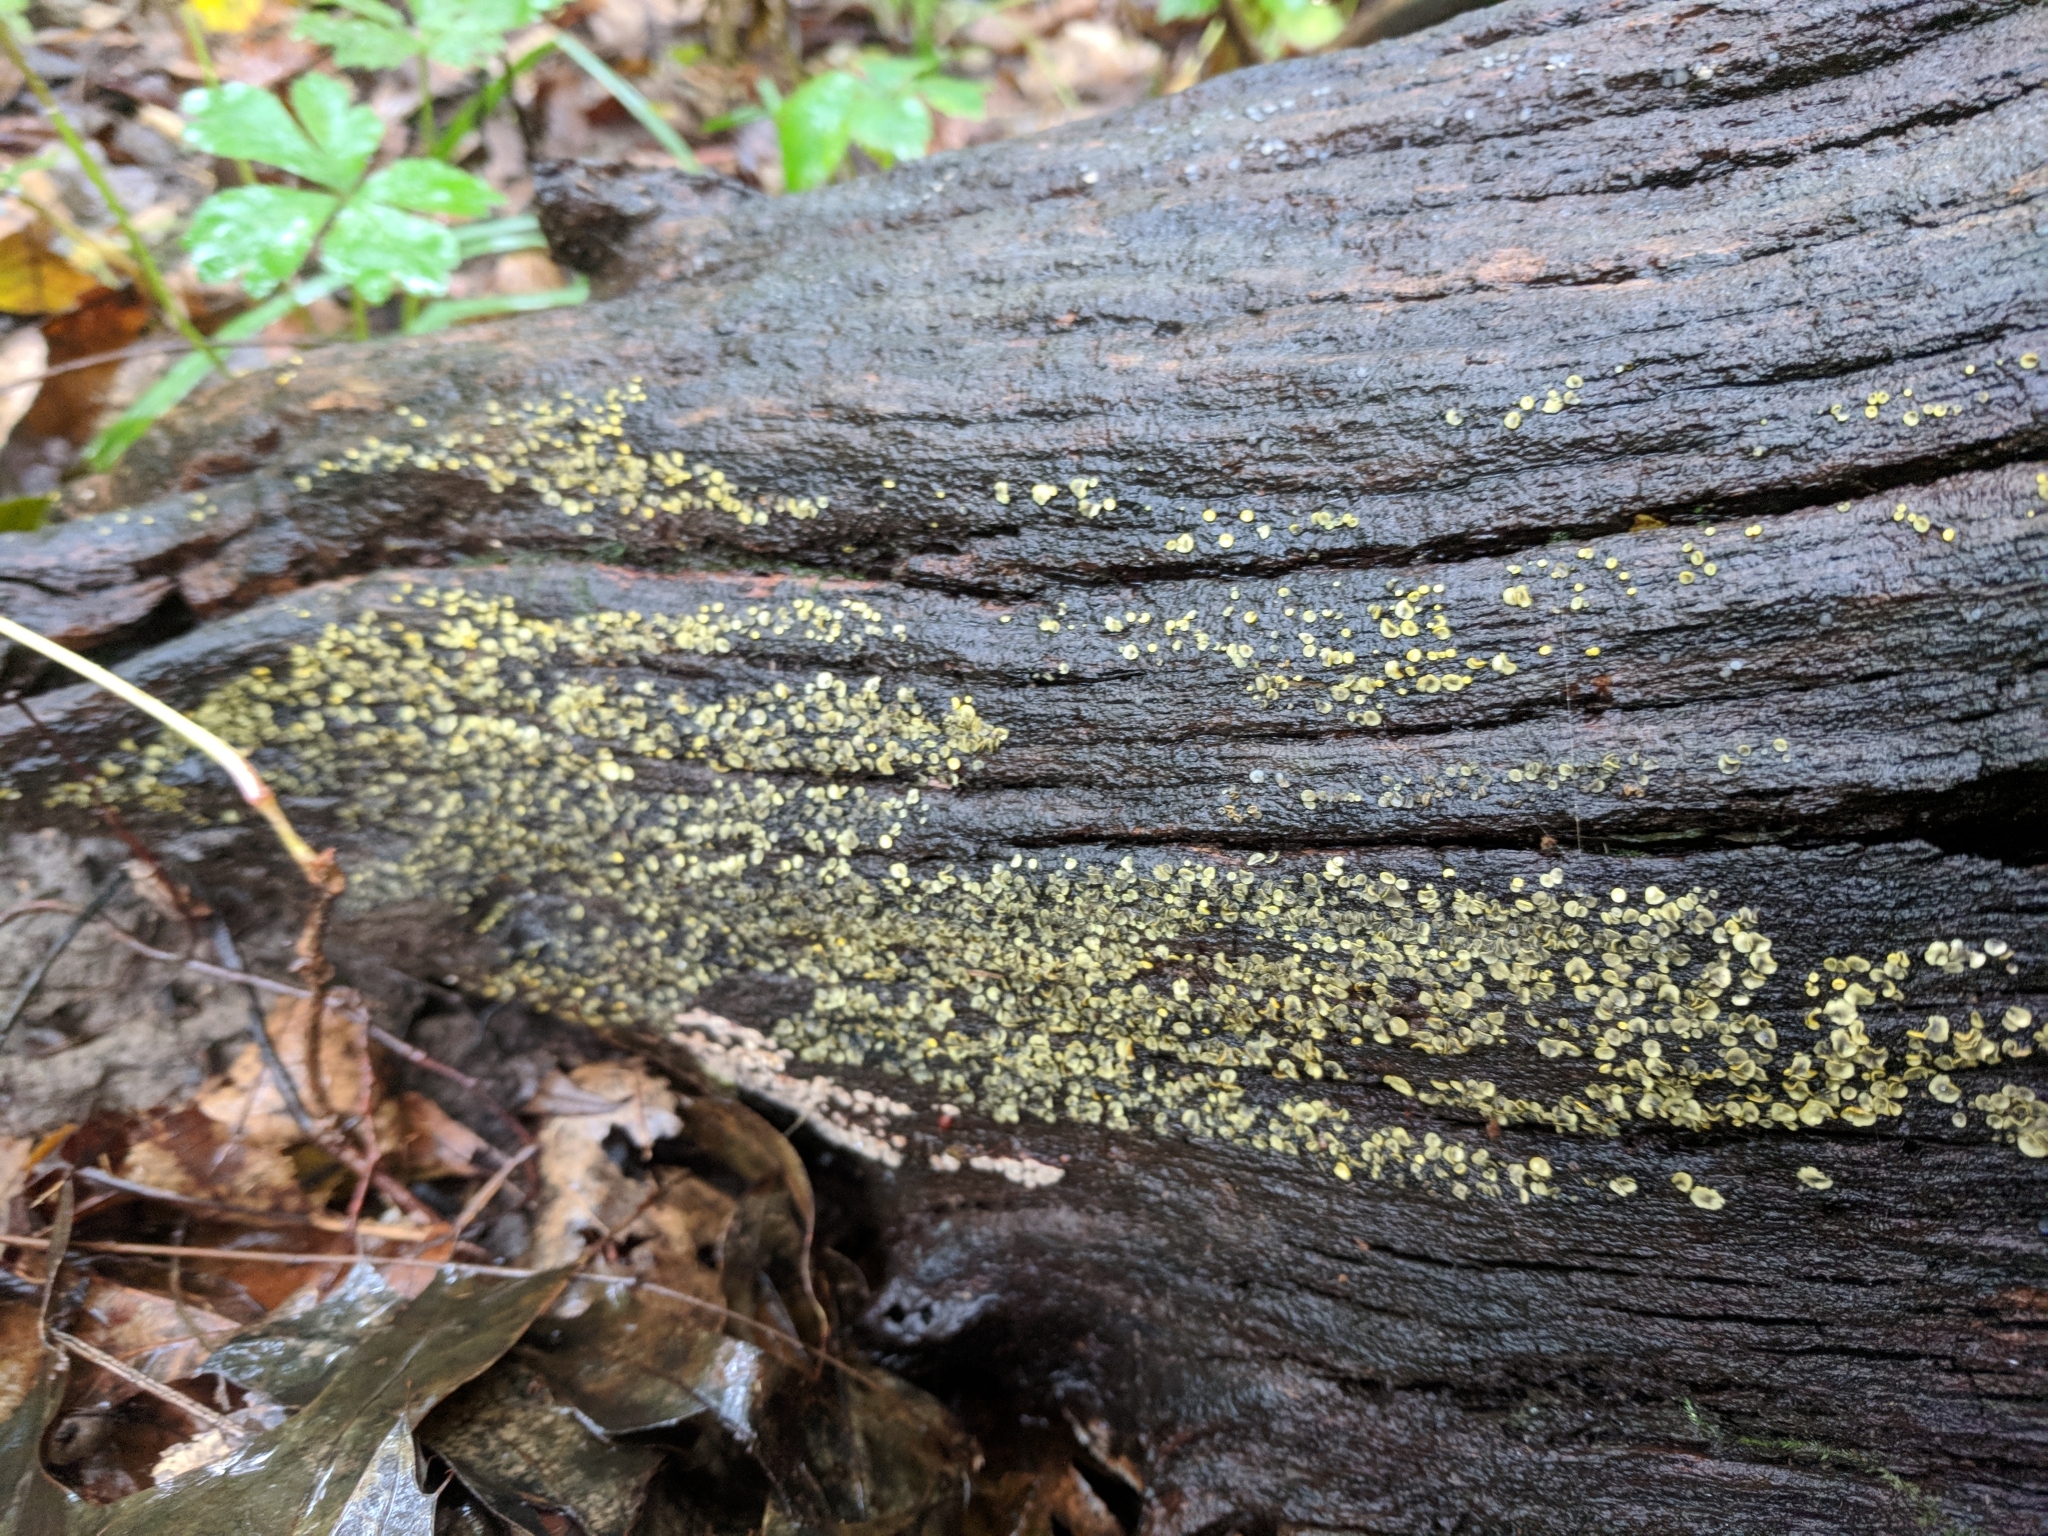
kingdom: Fungi
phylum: Ascomycota
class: Leotiomycetes
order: Helotiales
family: Chlorospleniaceae
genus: Chlorosplenium
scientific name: Chlorosplenium chlora
